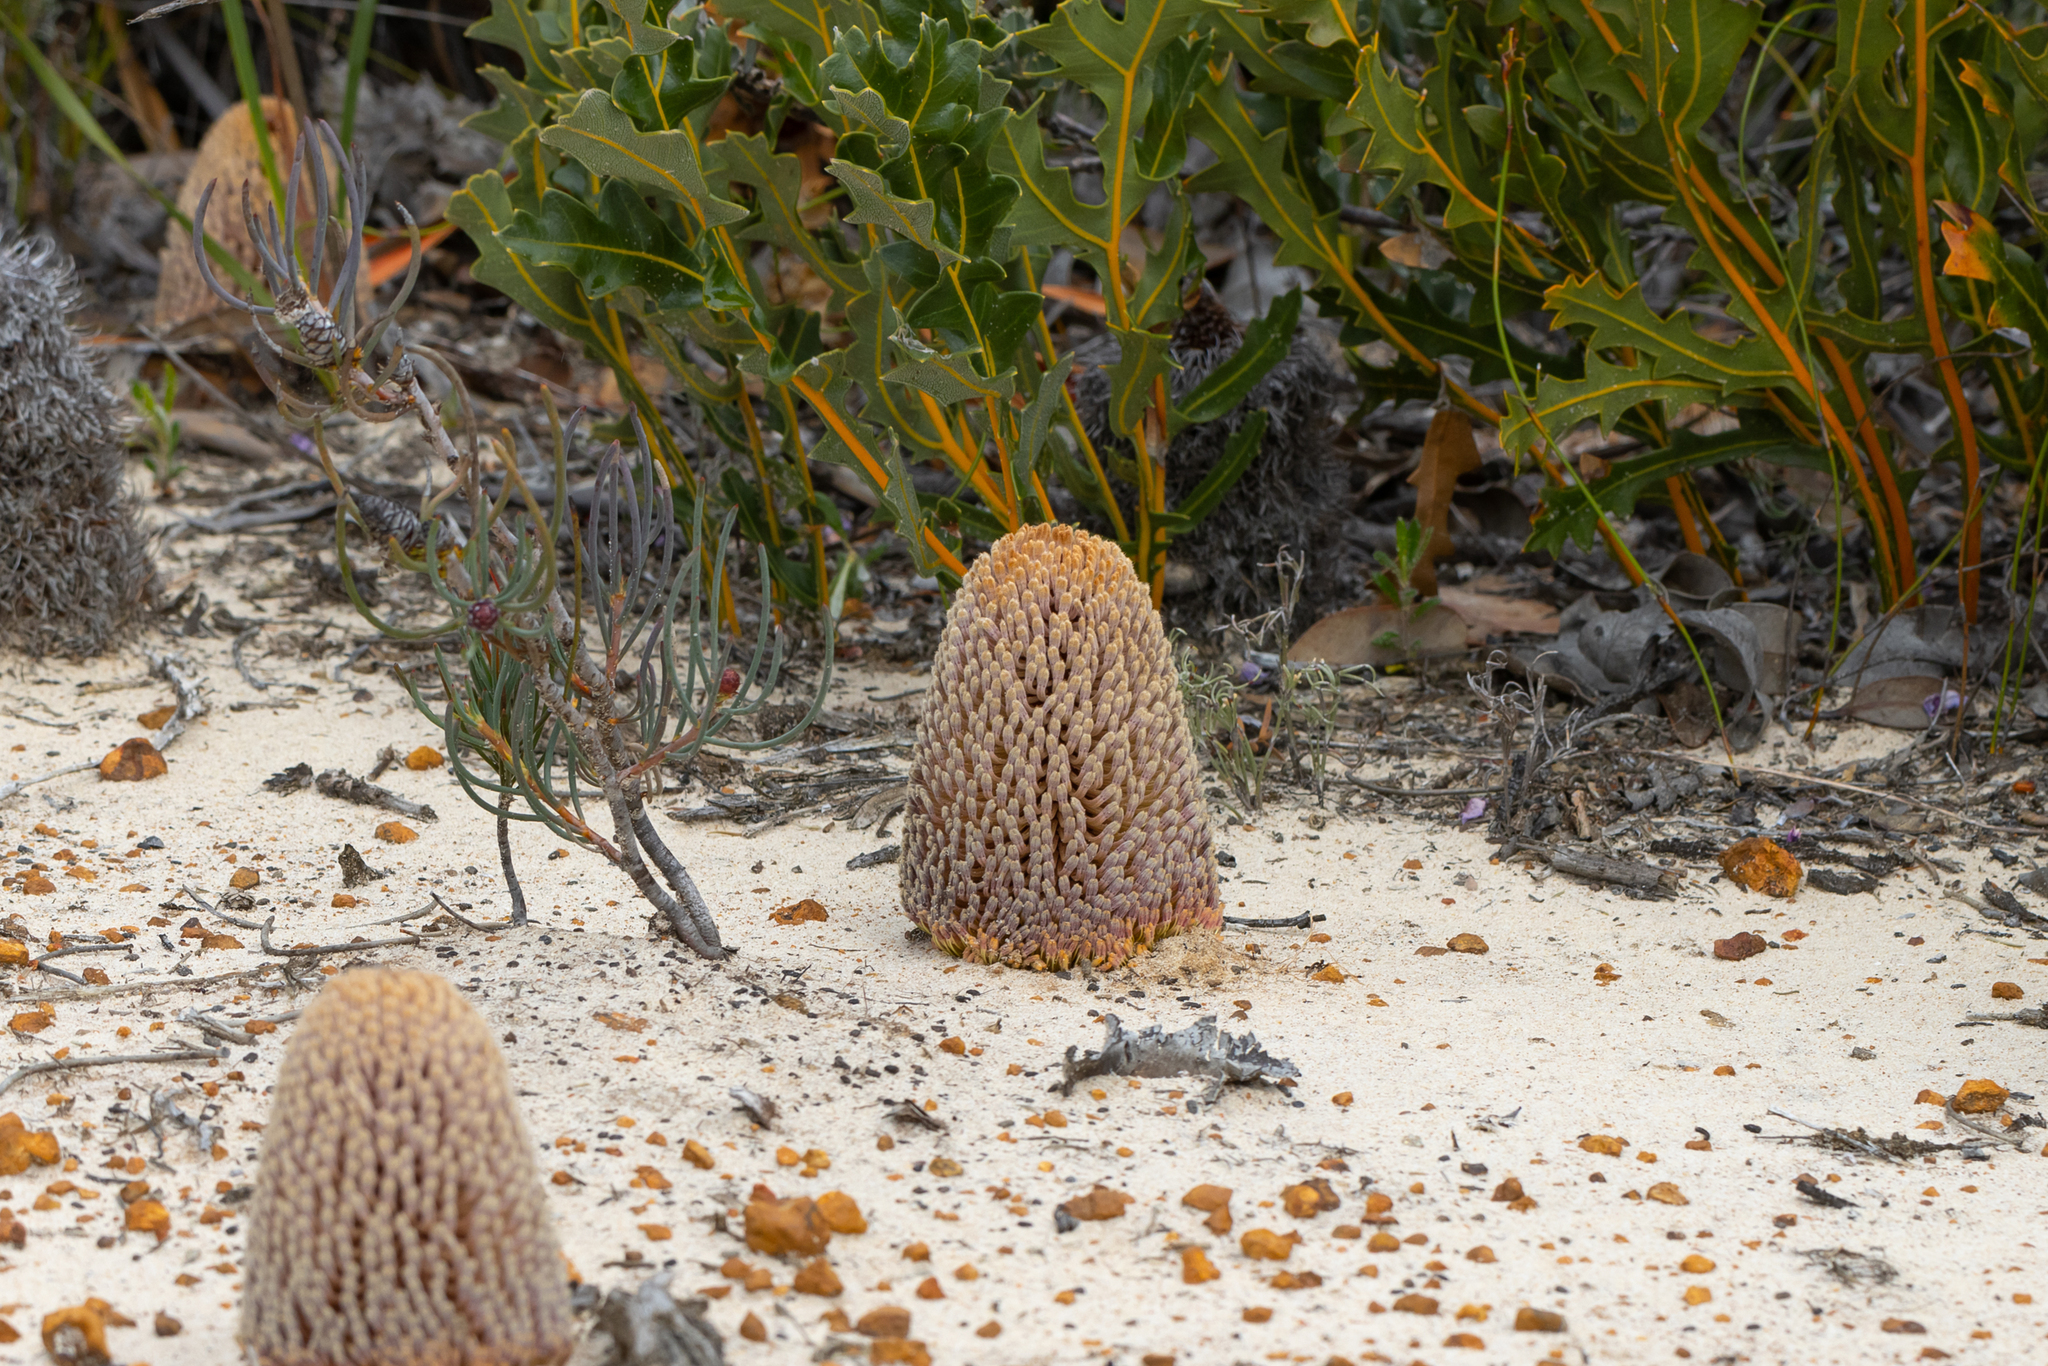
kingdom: Plantae
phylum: Tracheophyta
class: Magnoliopsida
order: Proteales
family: Proteaceae
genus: Banksia
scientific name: Banksia repens
